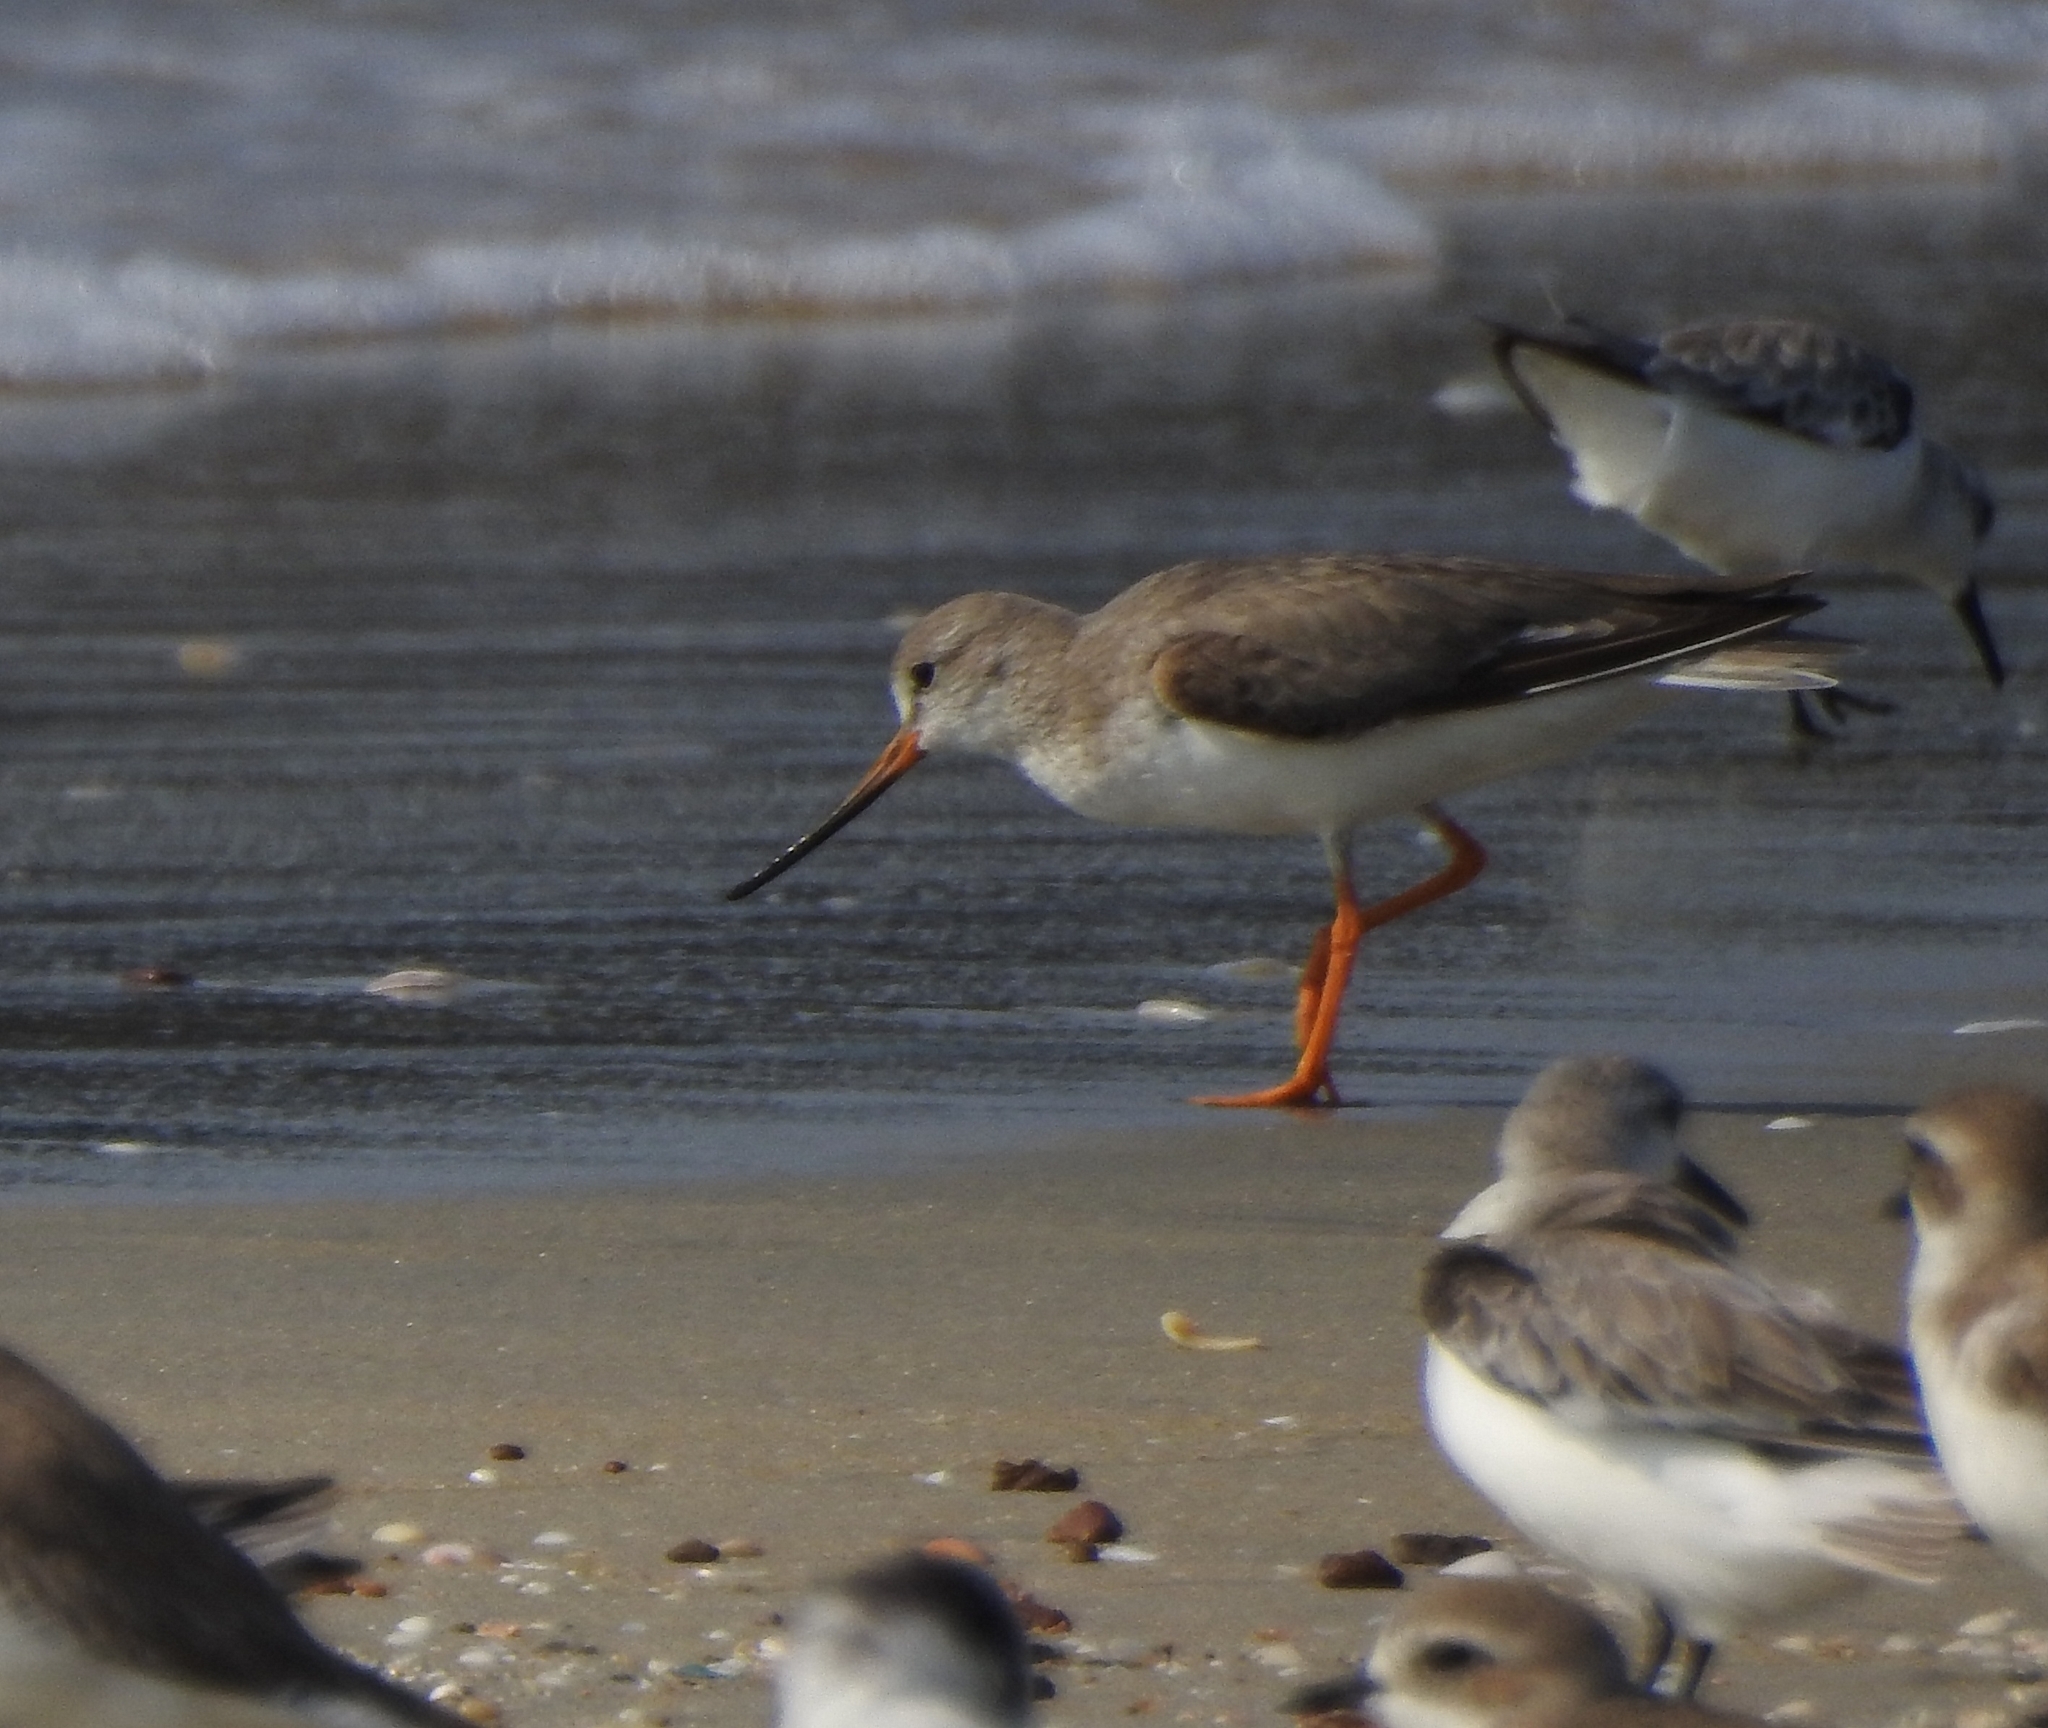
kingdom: Animalia
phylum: Chordata
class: Aves
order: Charadriiformes
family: Scolopacidae
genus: Xenus
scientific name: Xenus cinereus
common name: Terek sandpiper
